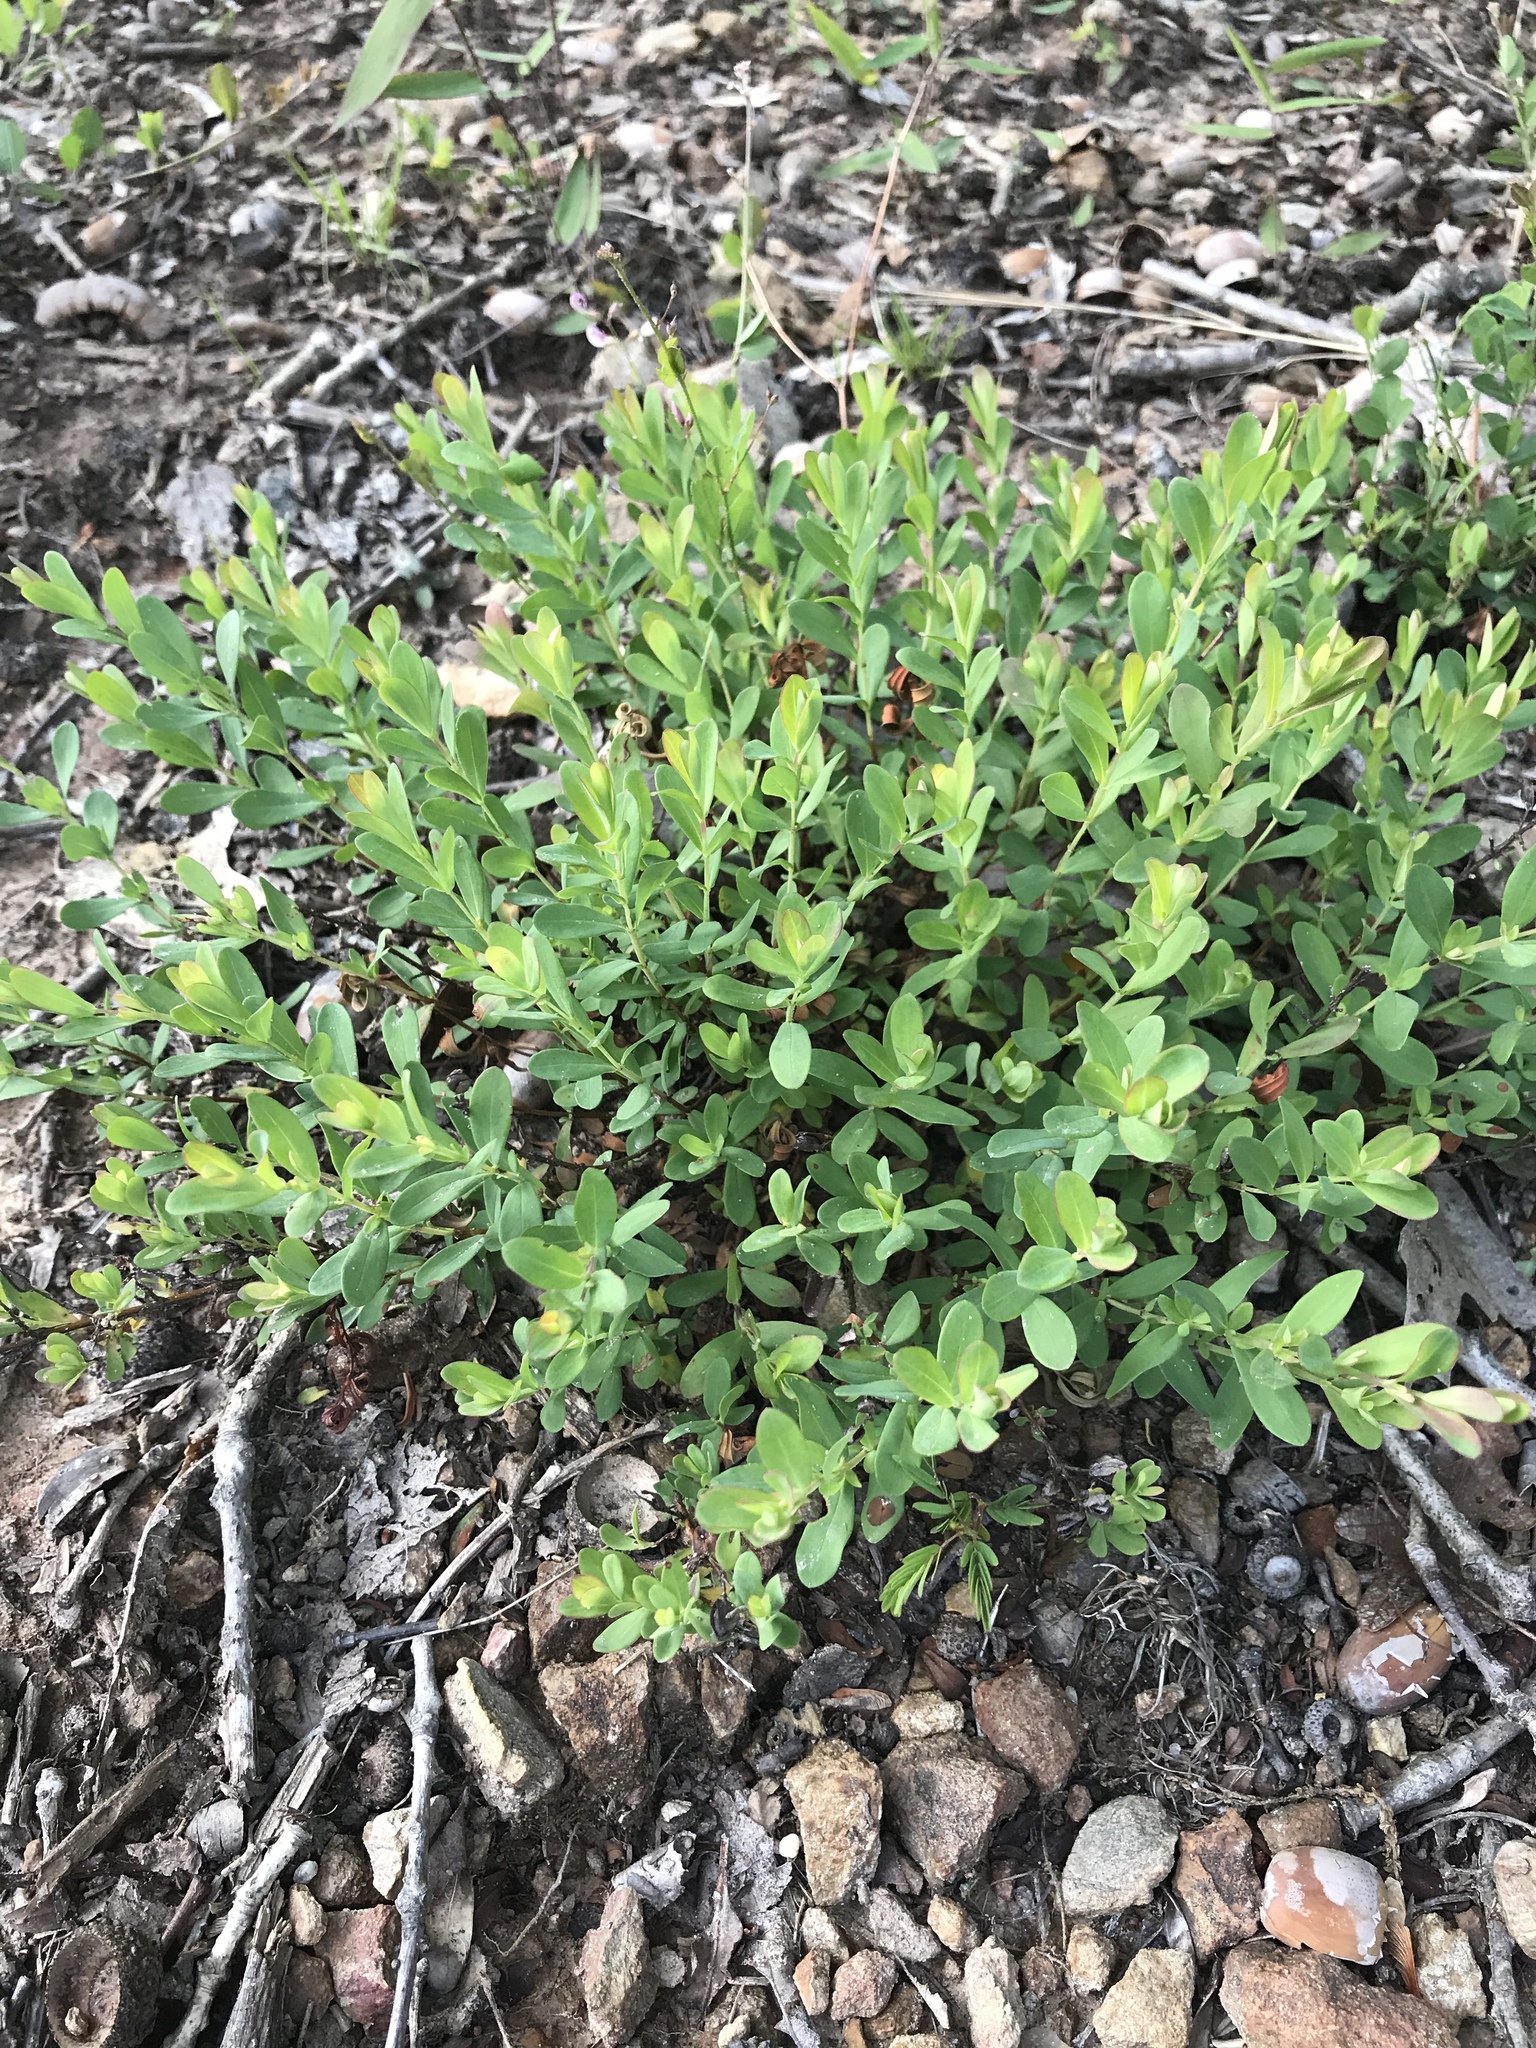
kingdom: Plantae
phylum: Tracheophyta
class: Magnoliopsida
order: Malpighiales
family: Hypericaceae
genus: Hypericum
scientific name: Hypericum hypericoides
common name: St. andrew's cross
